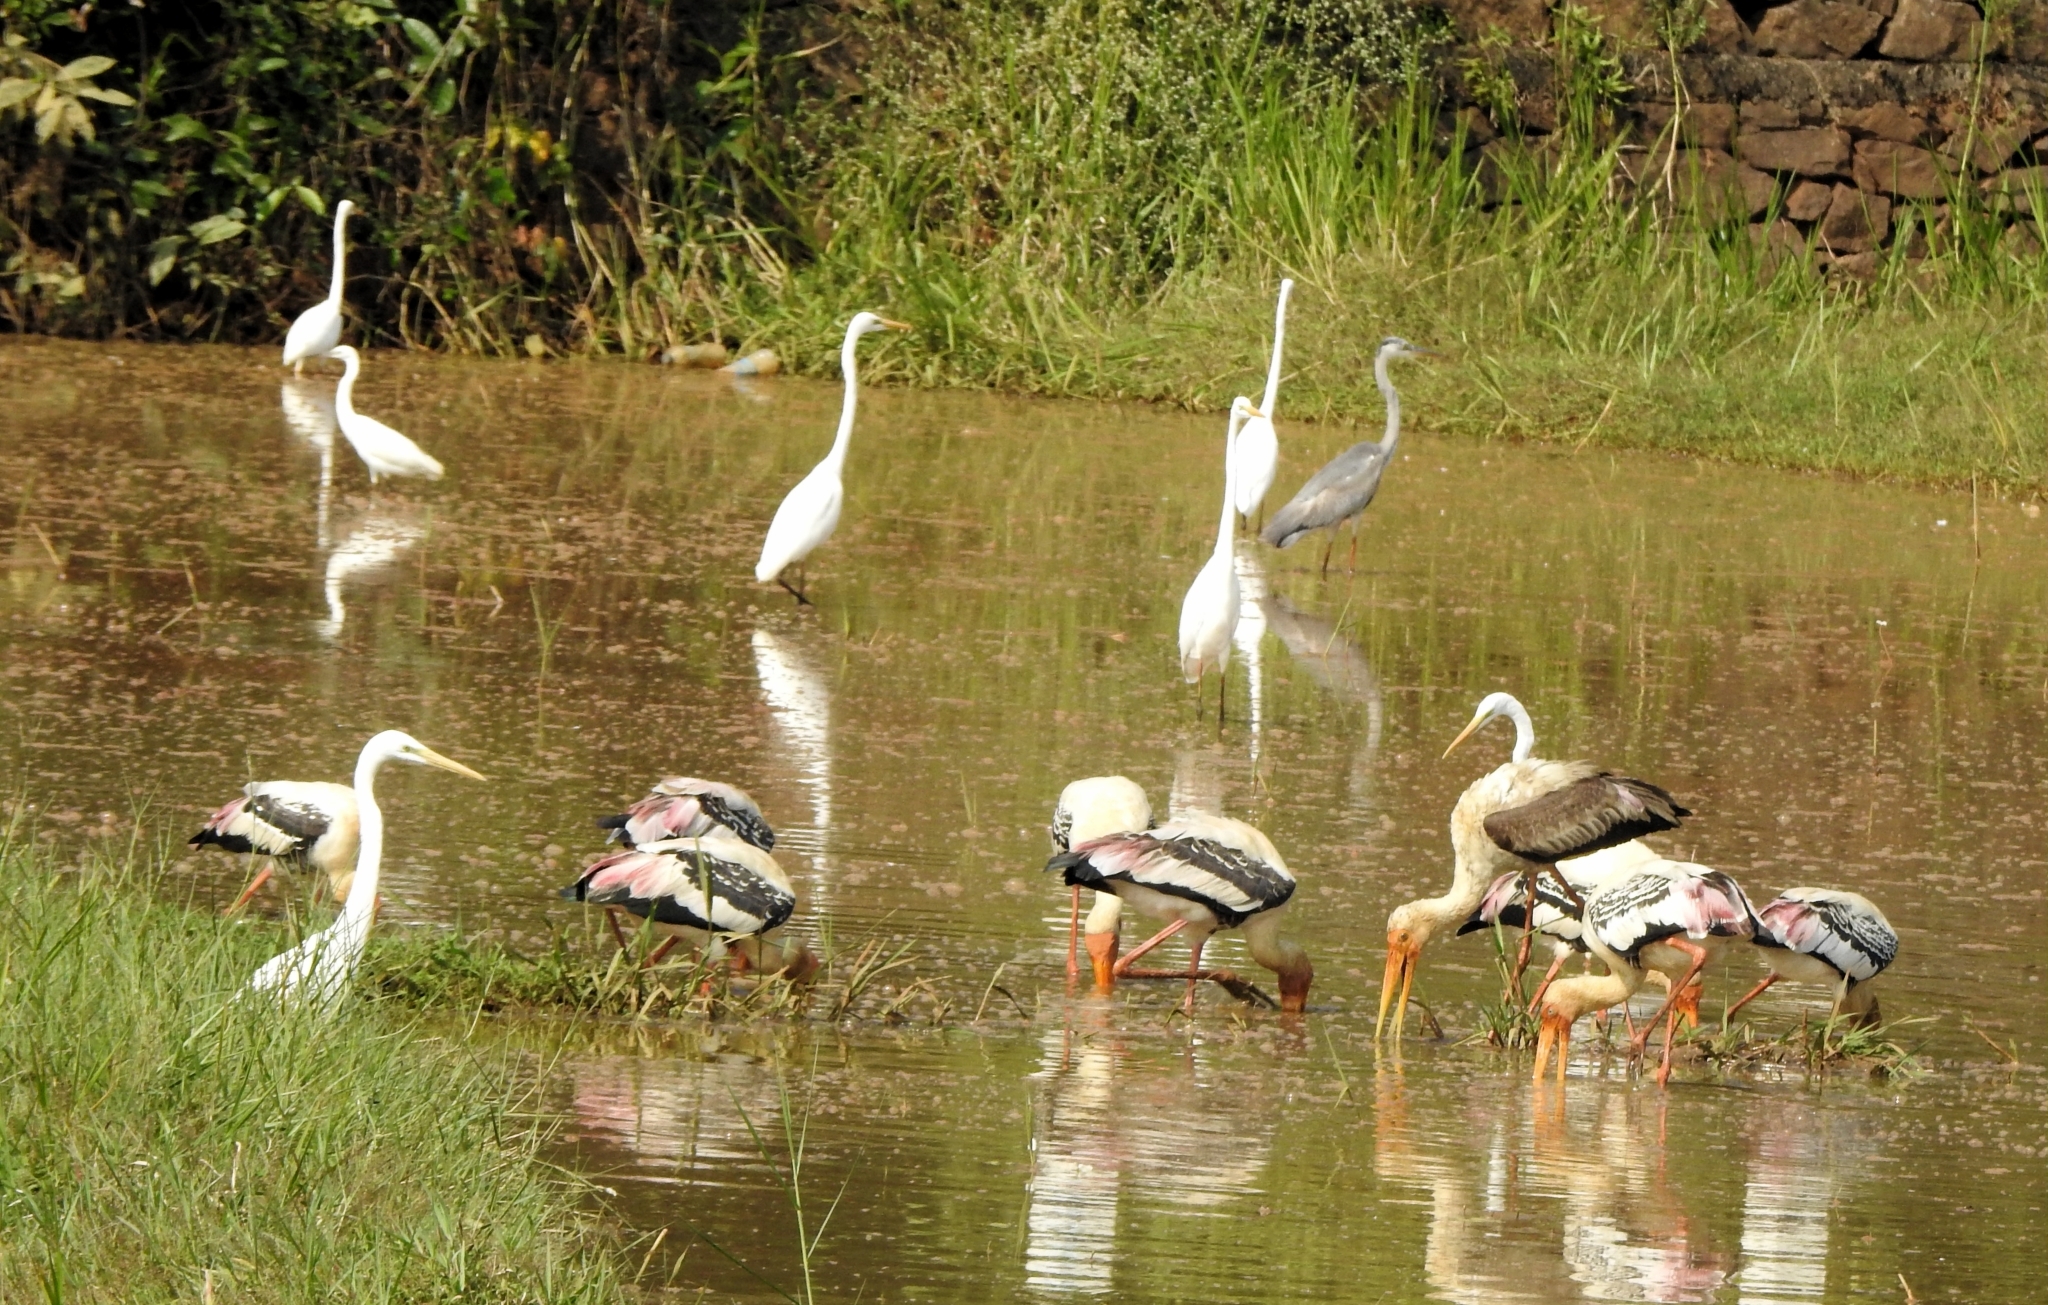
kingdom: Animalia
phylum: Chordata
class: Aves
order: Ciconiiformes
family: Ciconiidae
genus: Mycteria
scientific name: Mycteria leucocephala
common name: Painted stork
